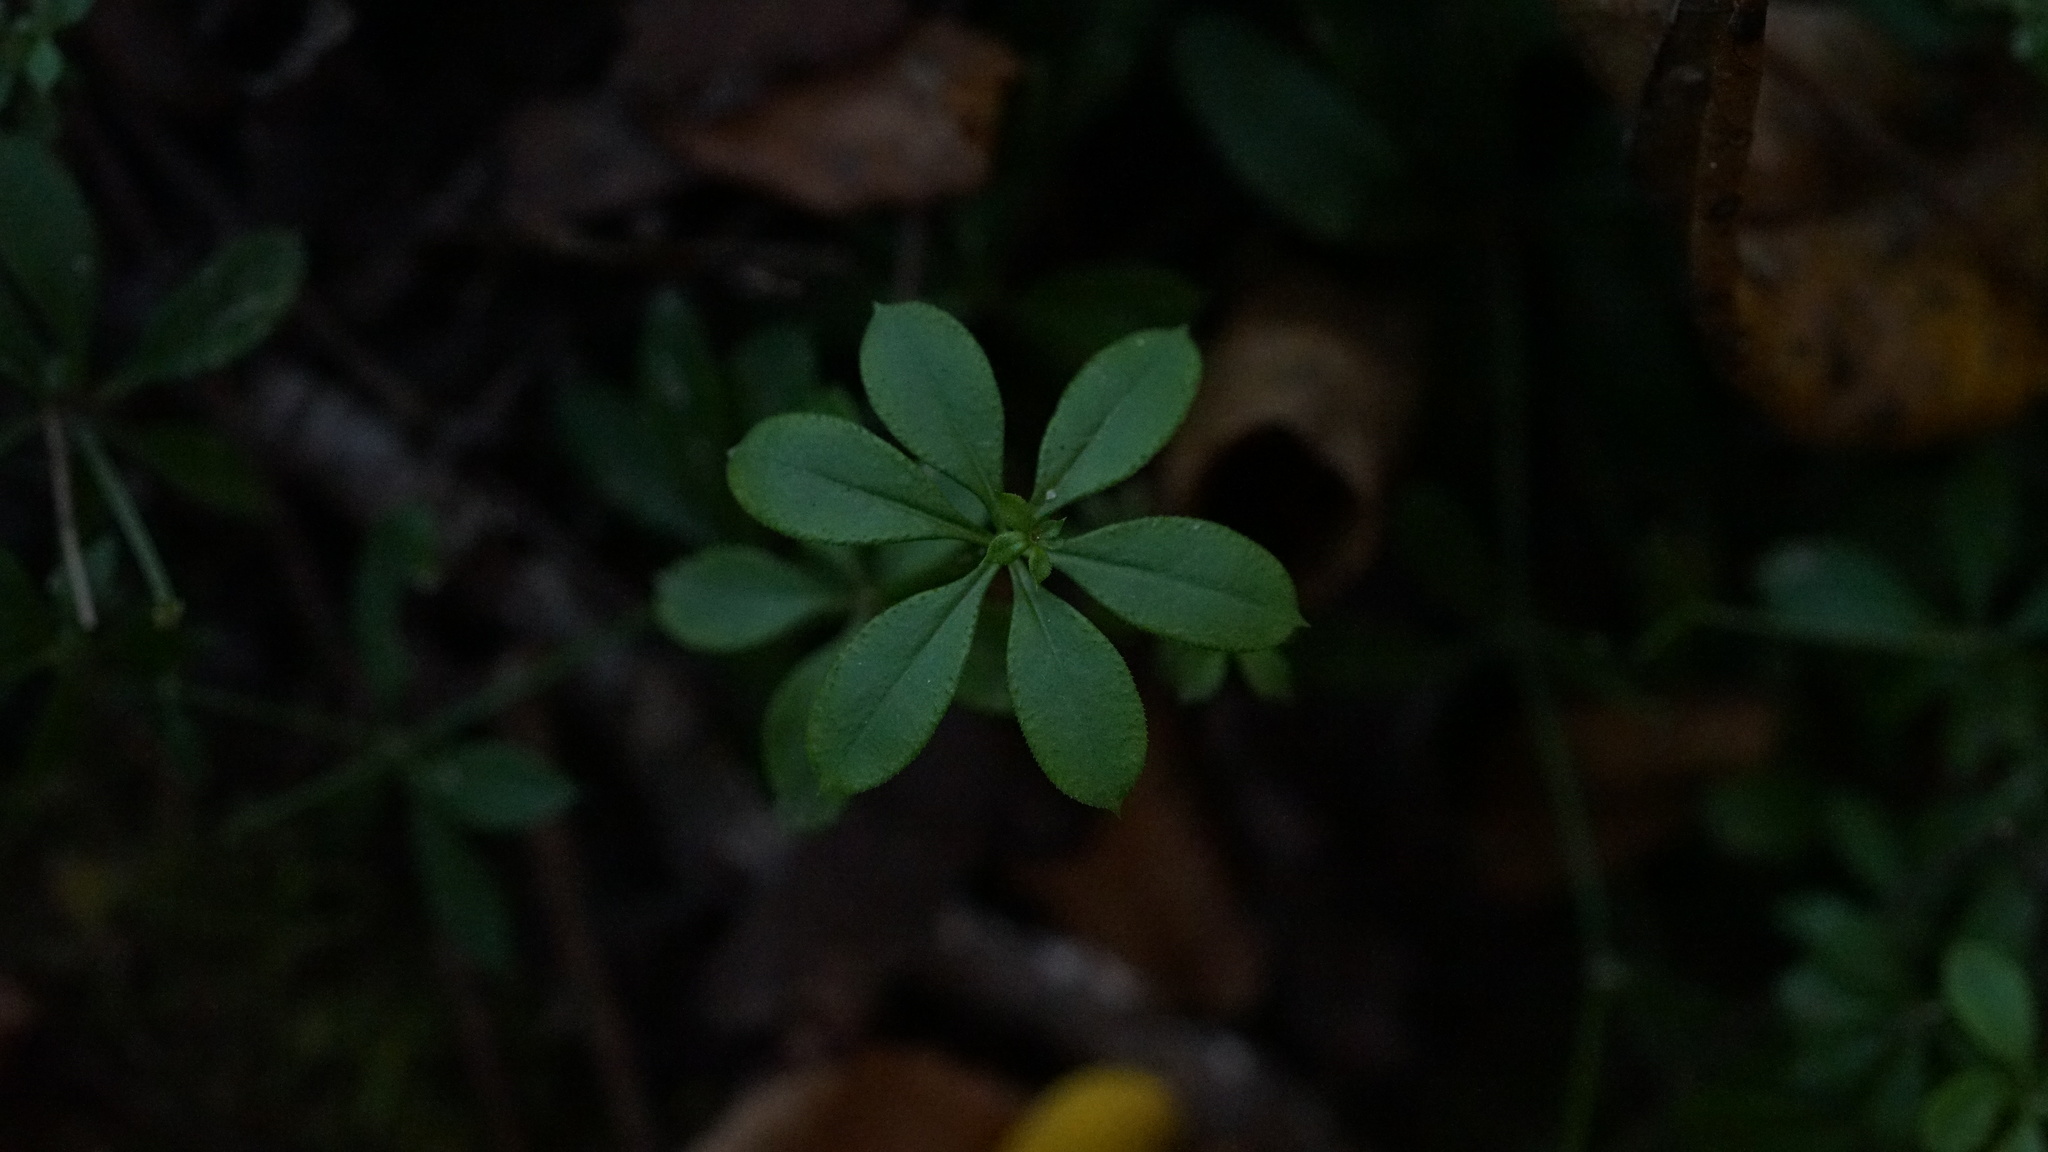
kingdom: Plantae
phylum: Tracheophyta
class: Magnoliopsida
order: Gentianales
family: Rubiaceae
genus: Galium
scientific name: Galium triflorum
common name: Fragrant bedstraw
